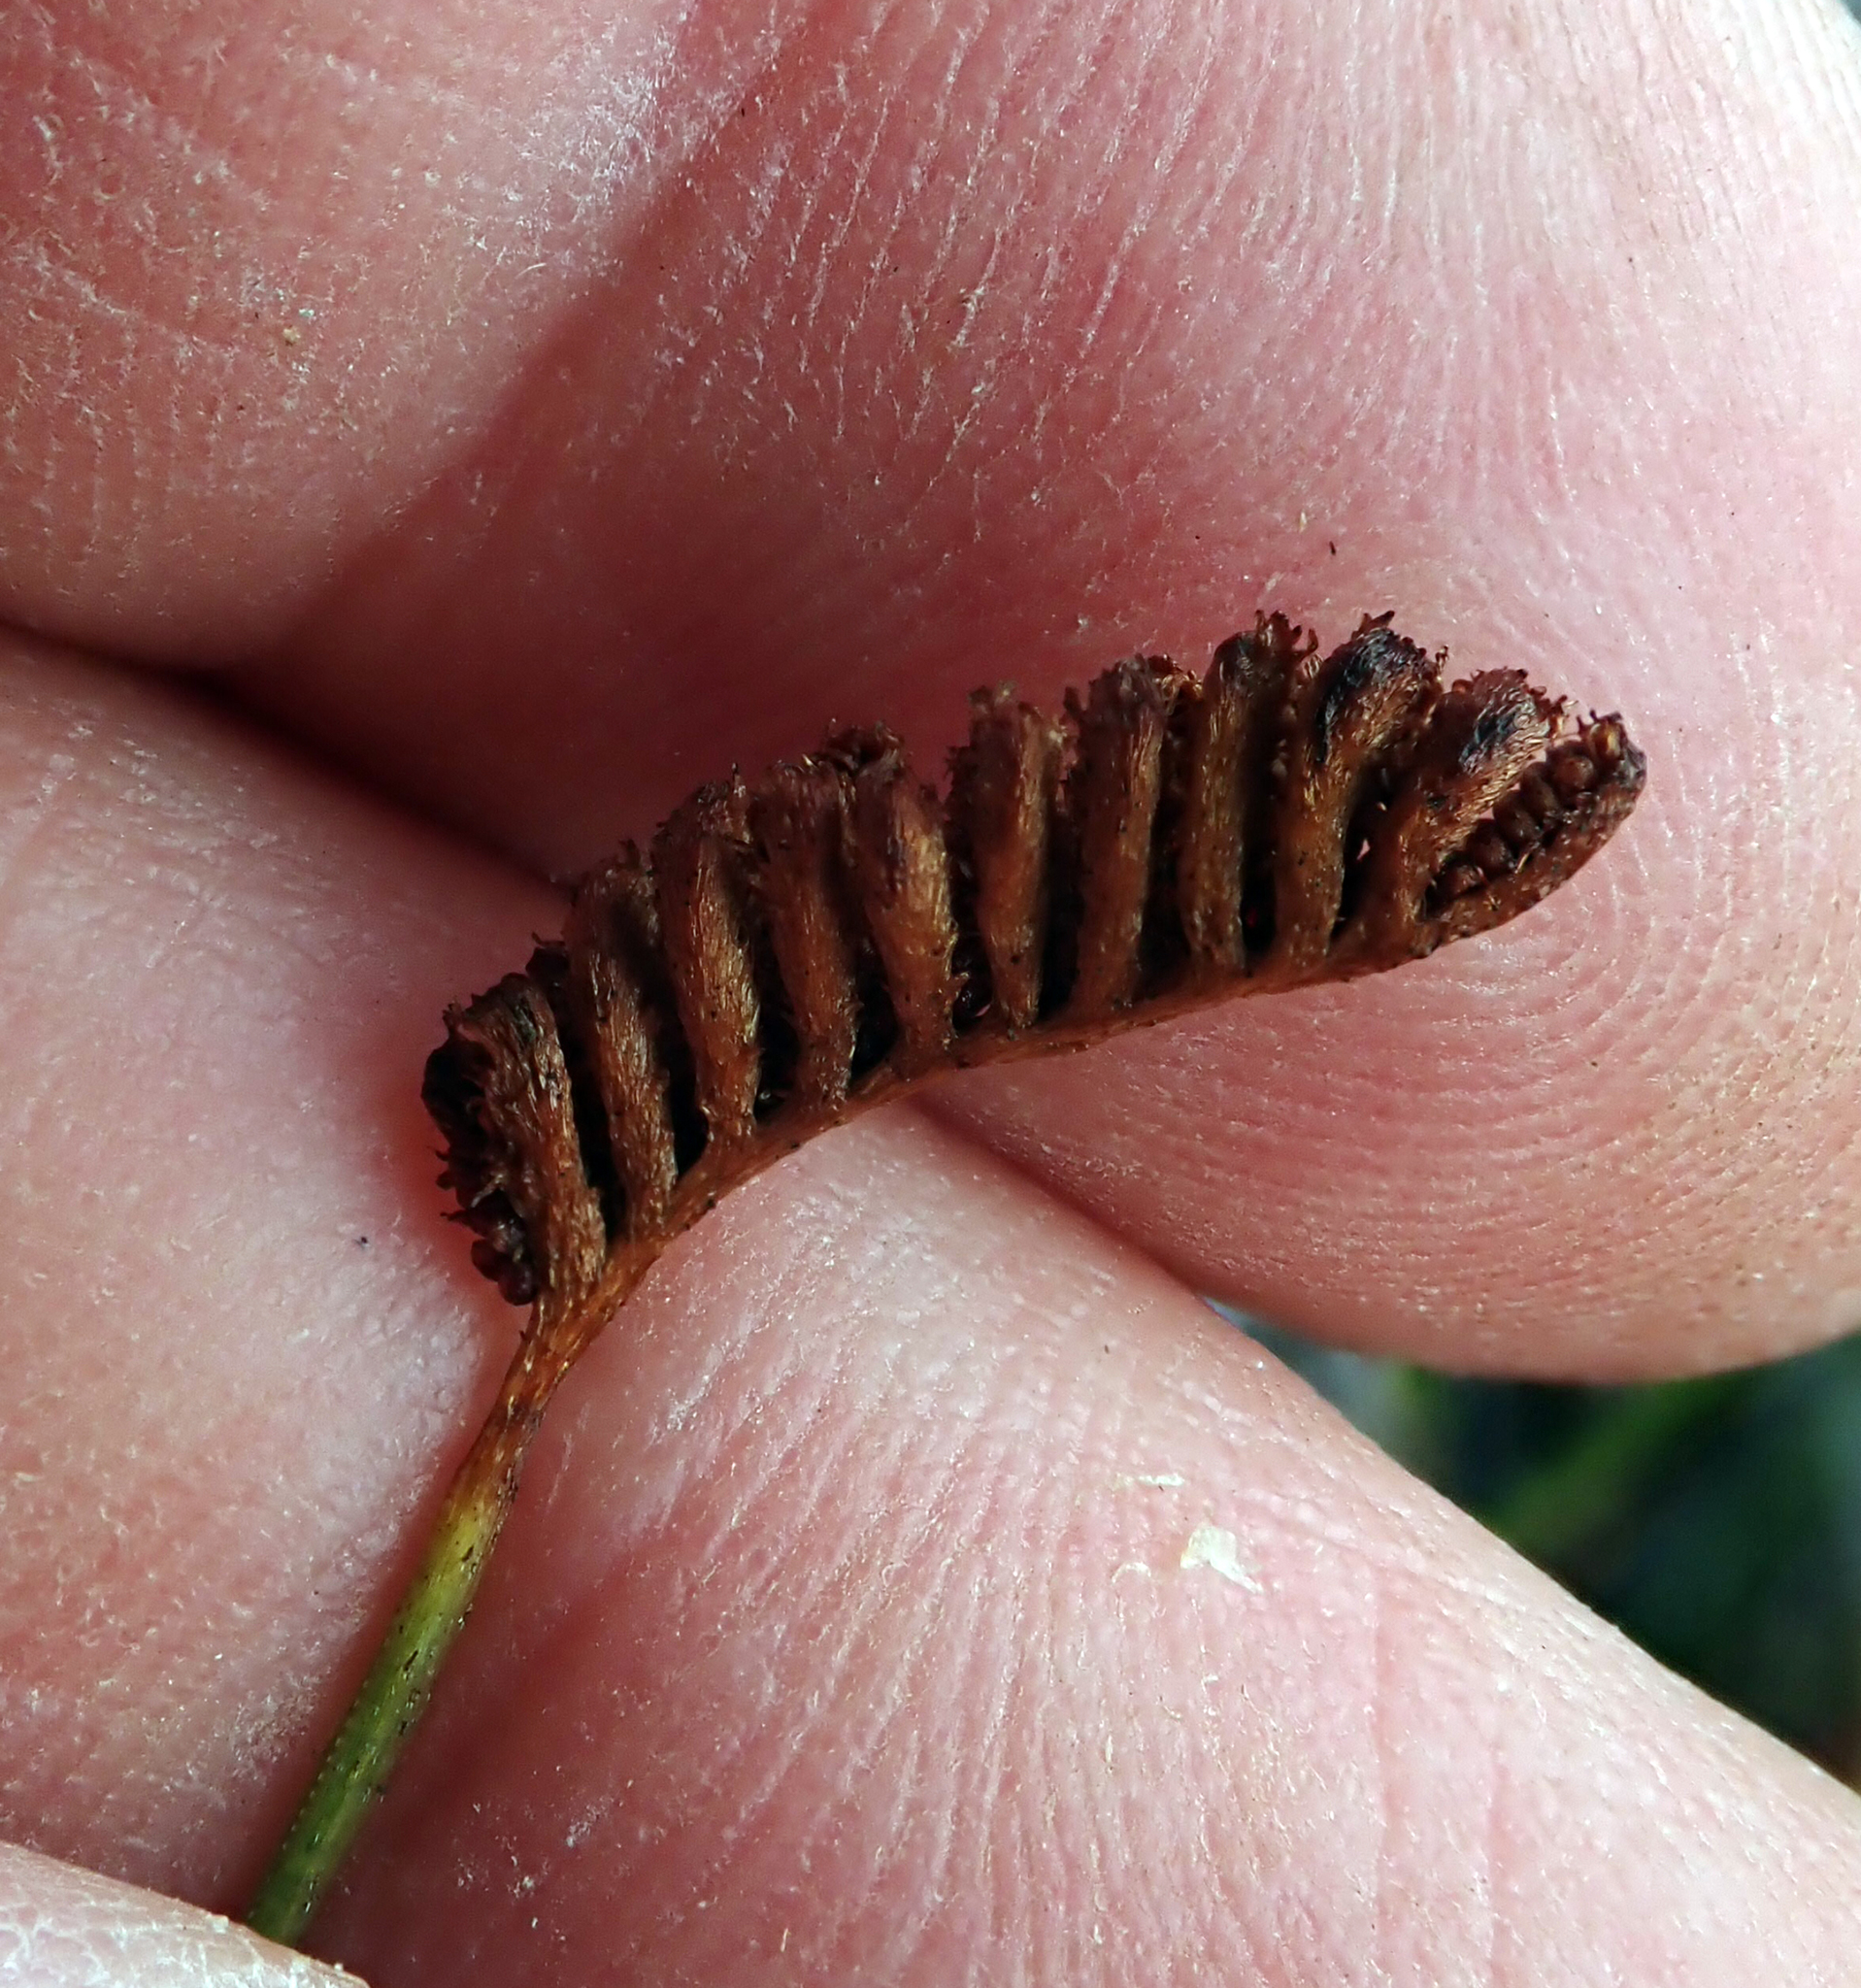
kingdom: Plantae
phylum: Tracheophyta
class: Polypodiopsida
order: Schizaeales
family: Schizaeaceae
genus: Microschizaea
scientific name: Microschizaea fistulosa
